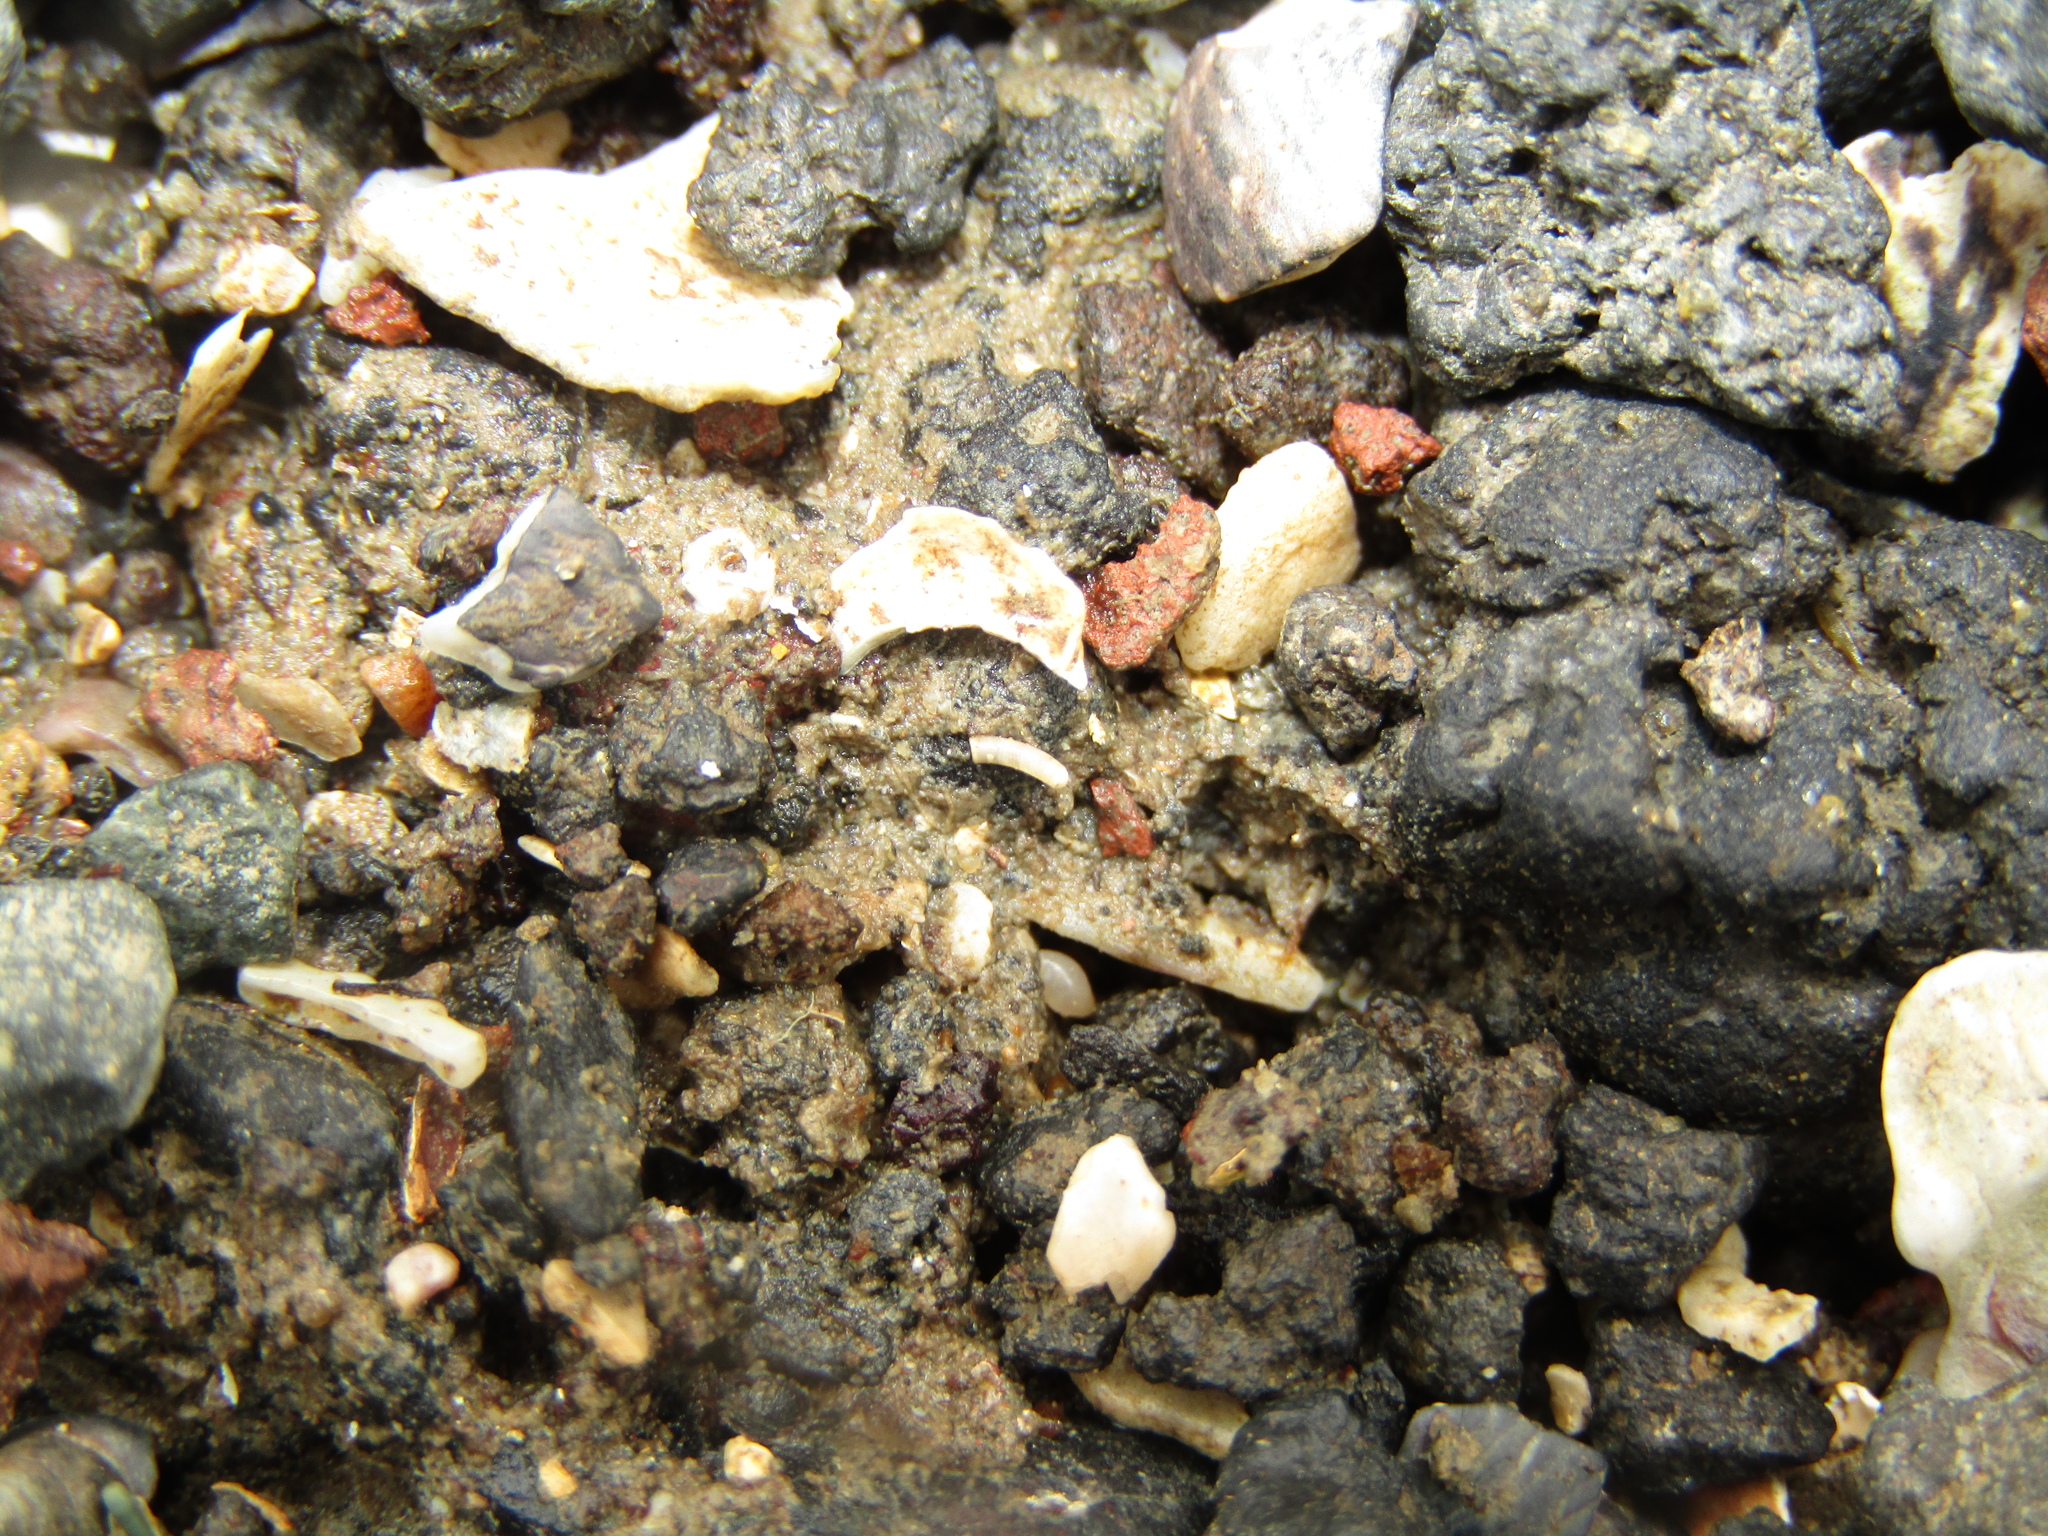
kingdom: Animalia
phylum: Mollusca
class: Gastropoda
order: Littorinimorpha
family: Caecidae
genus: Caecum
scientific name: Caecum
